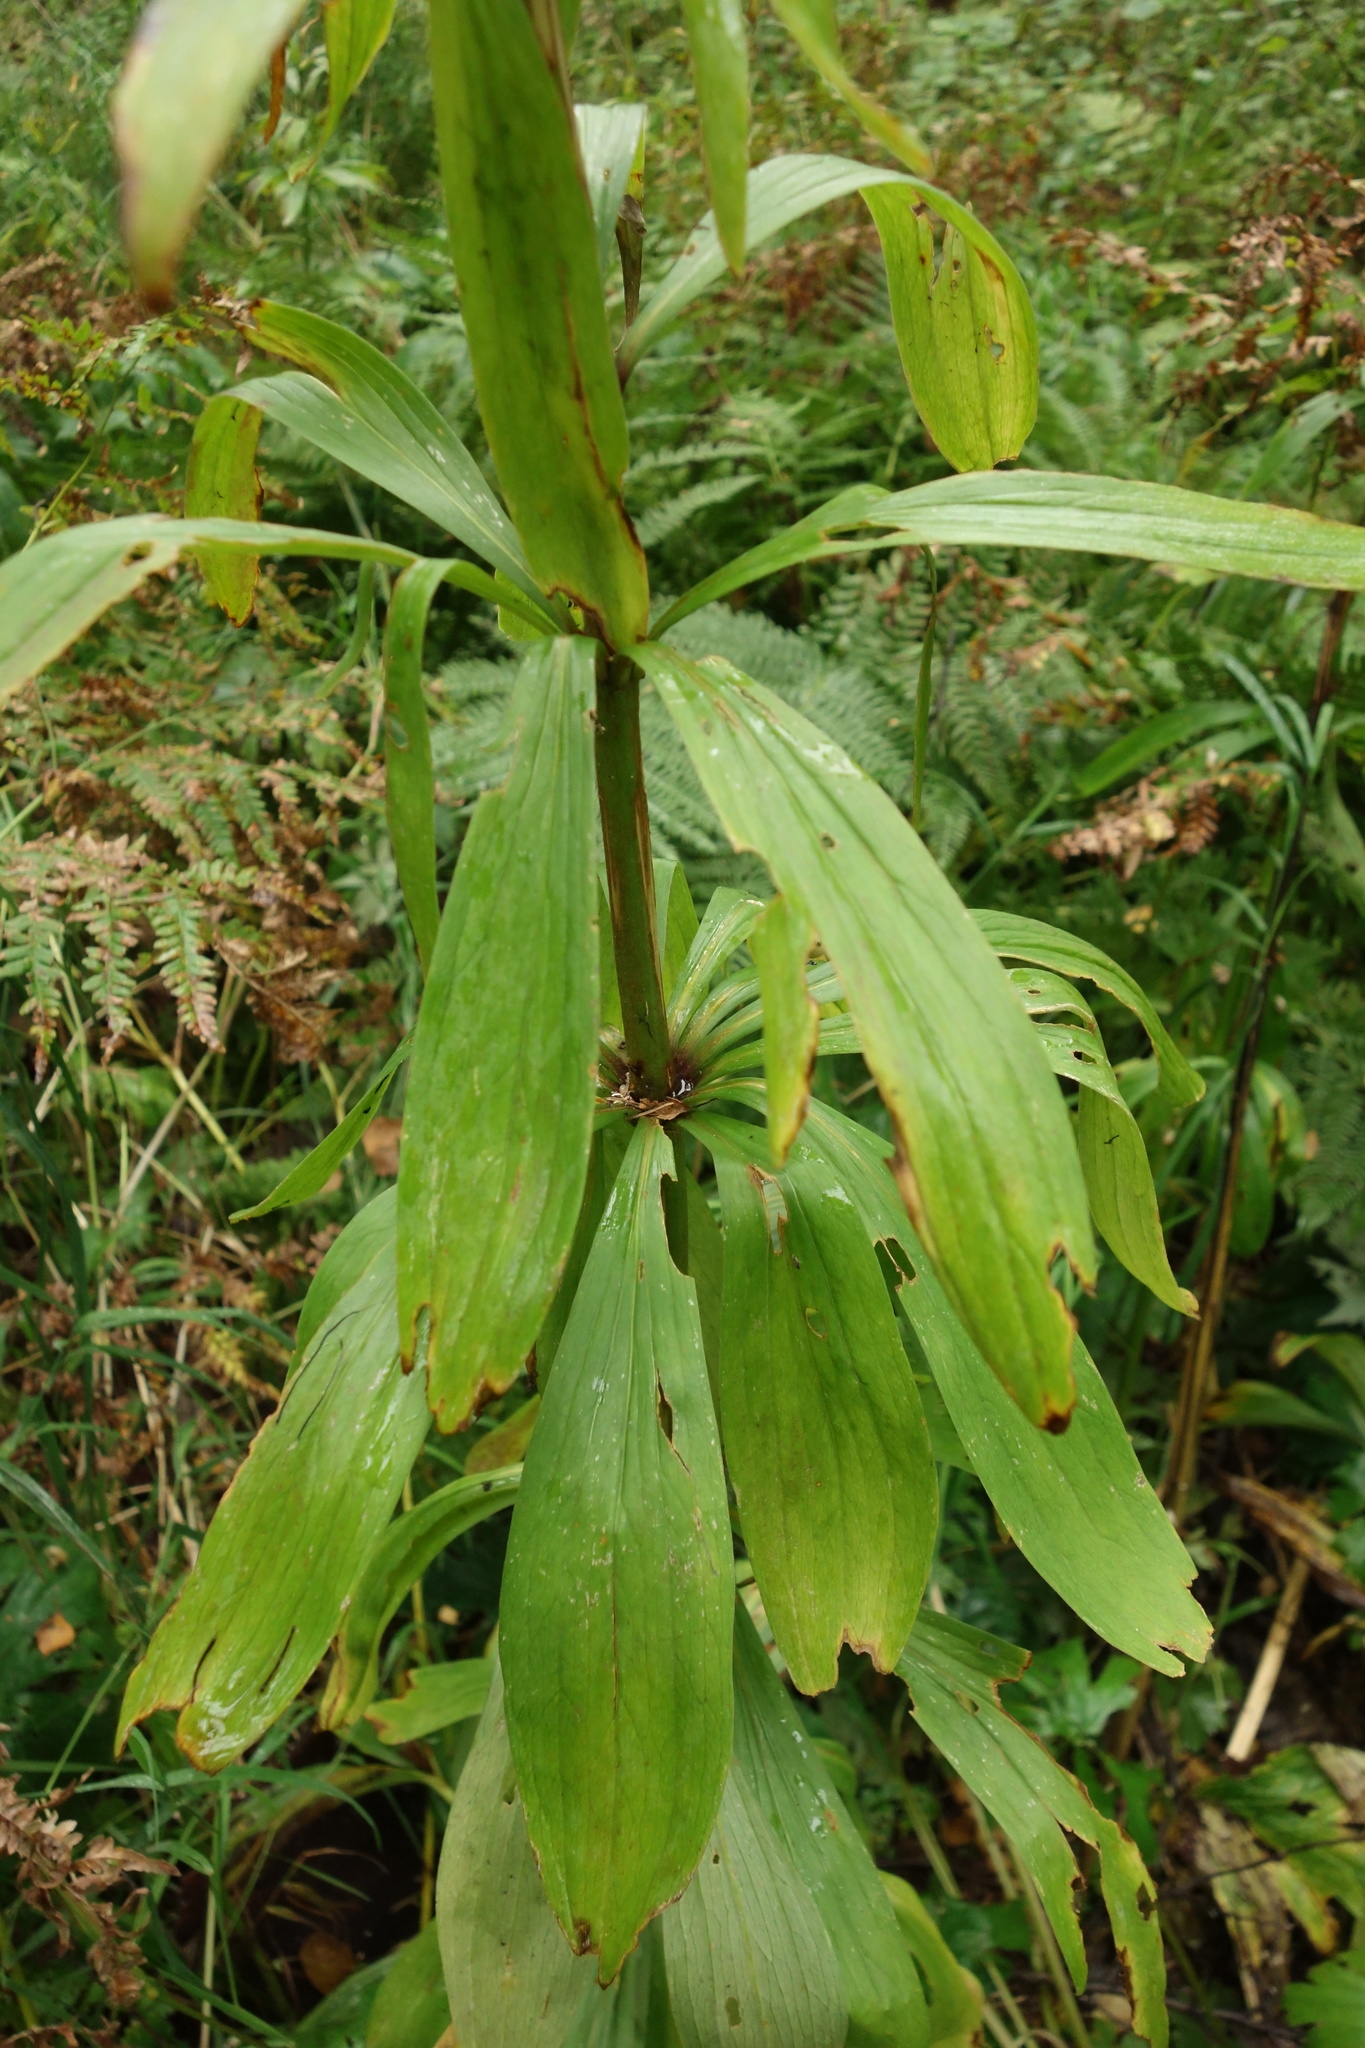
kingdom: Plantae
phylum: Tracheophyta
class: Liliopsida
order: Liliales
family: Liliaceae
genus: Lilium
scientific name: Lilium martagon
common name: Martagon lily
